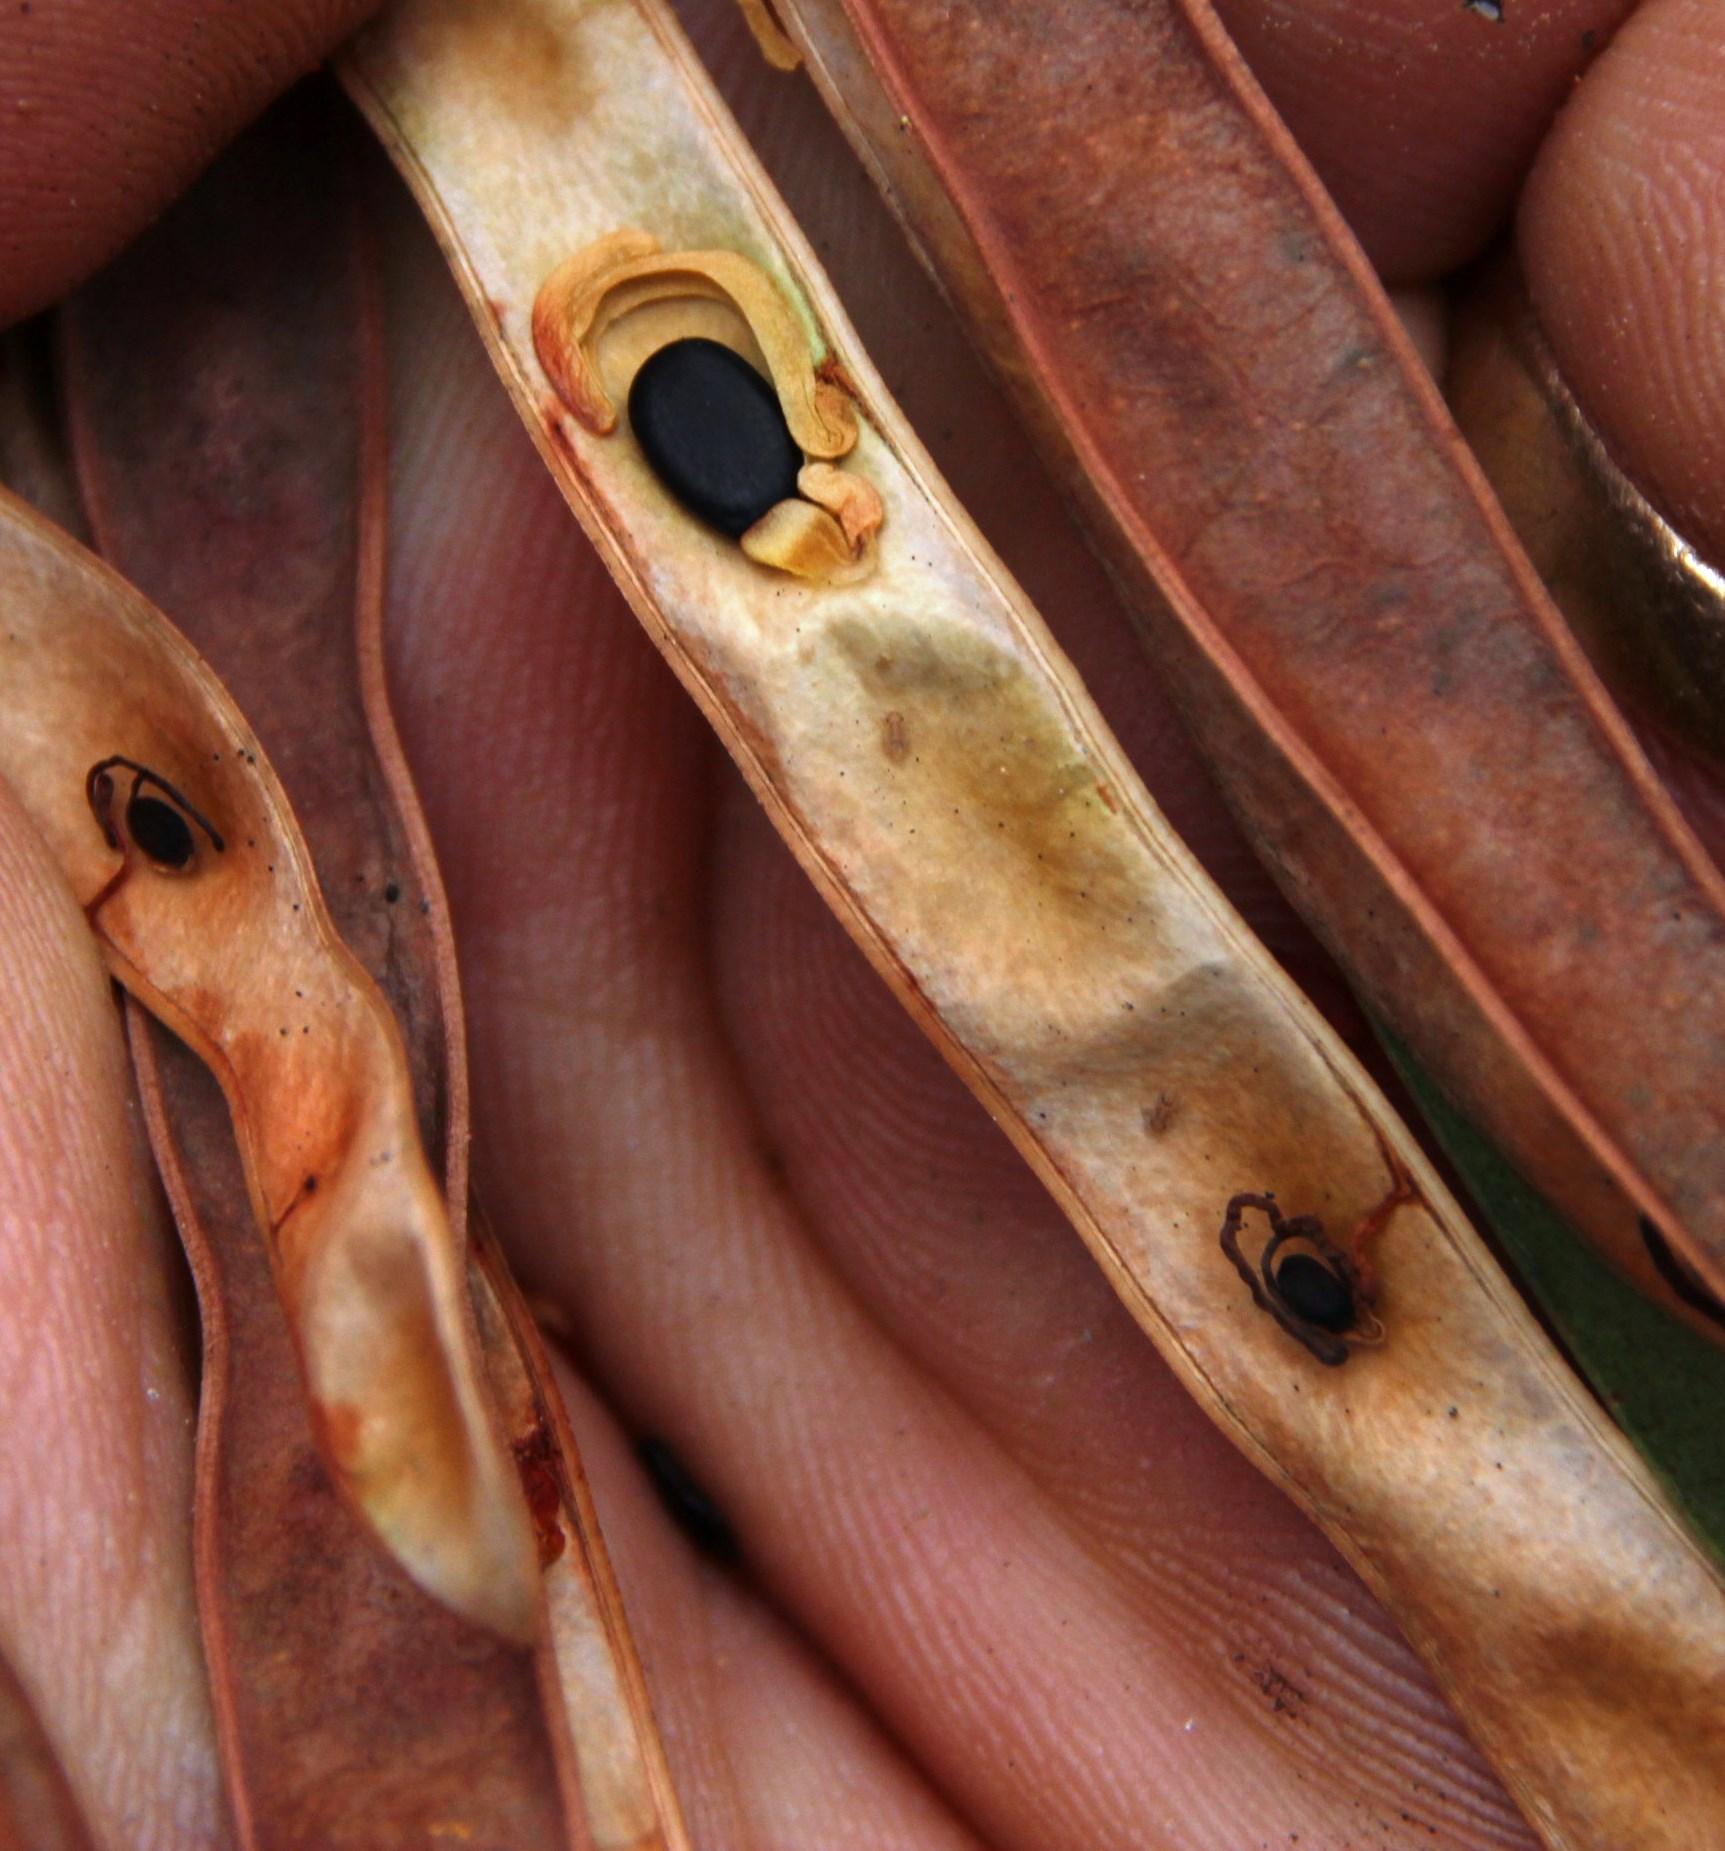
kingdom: Plantae
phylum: Tracheophyta
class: Magnoliopsida
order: Fabales
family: Fabaceae
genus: Acacia
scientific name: Acacia longifolia
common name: Sydney golden wattle
